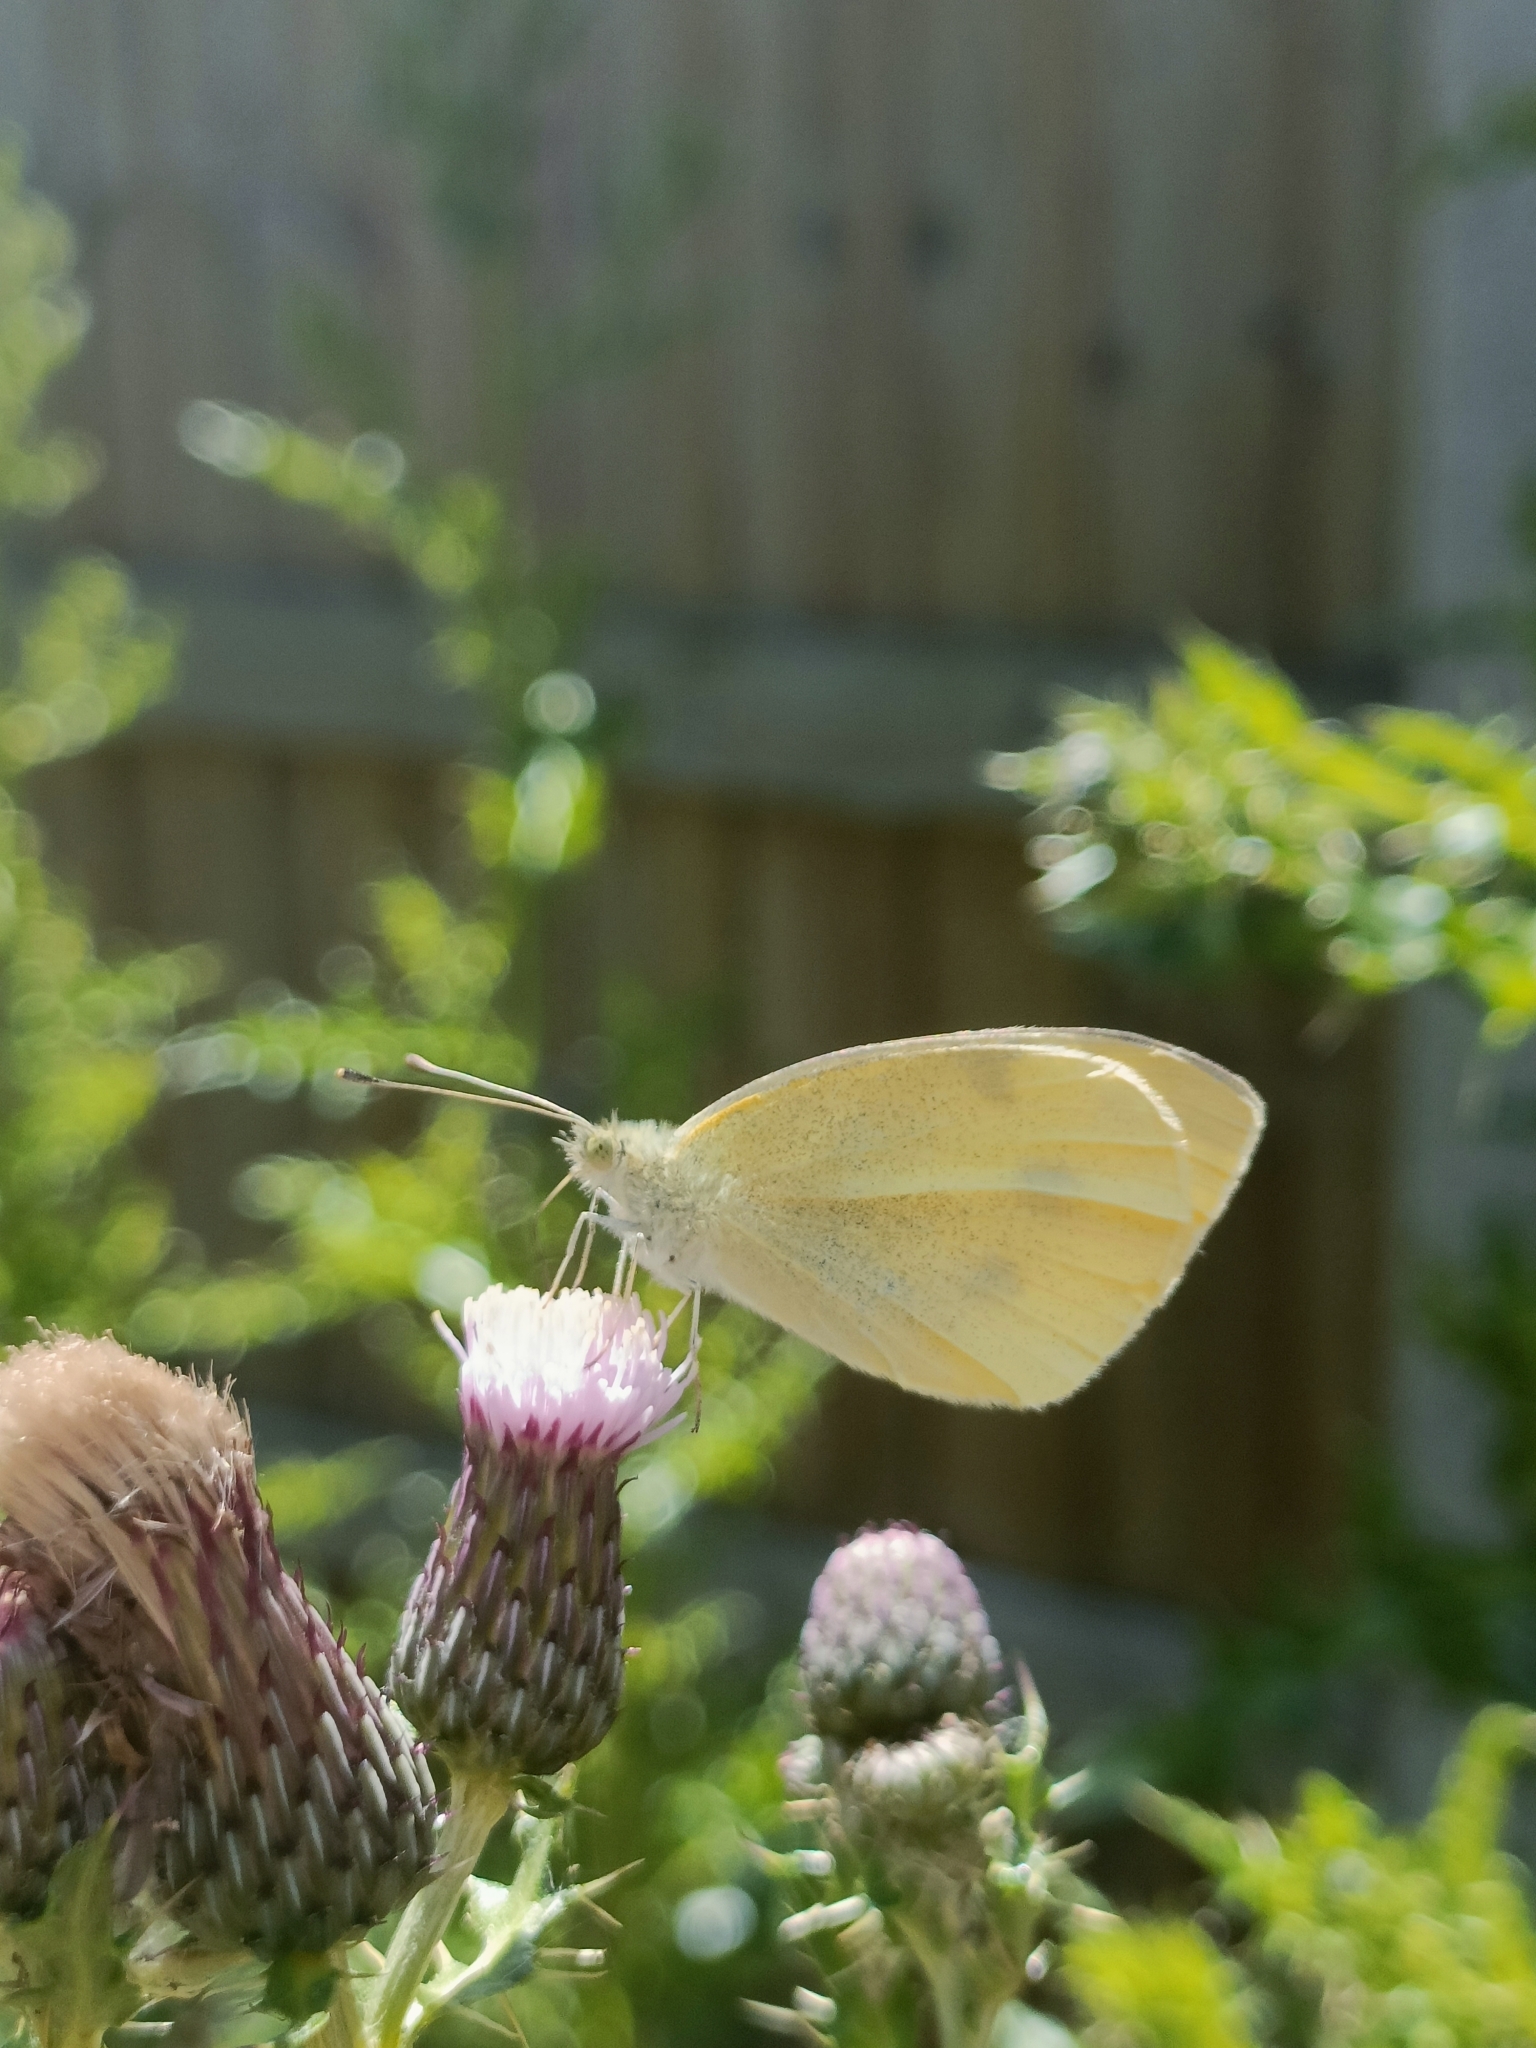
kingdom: Animalia
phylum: Arthropoda
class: Insecta
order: Lepidoptera
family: Pieridae
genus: Pieris
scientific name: Pieris brassicae
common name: Large white
